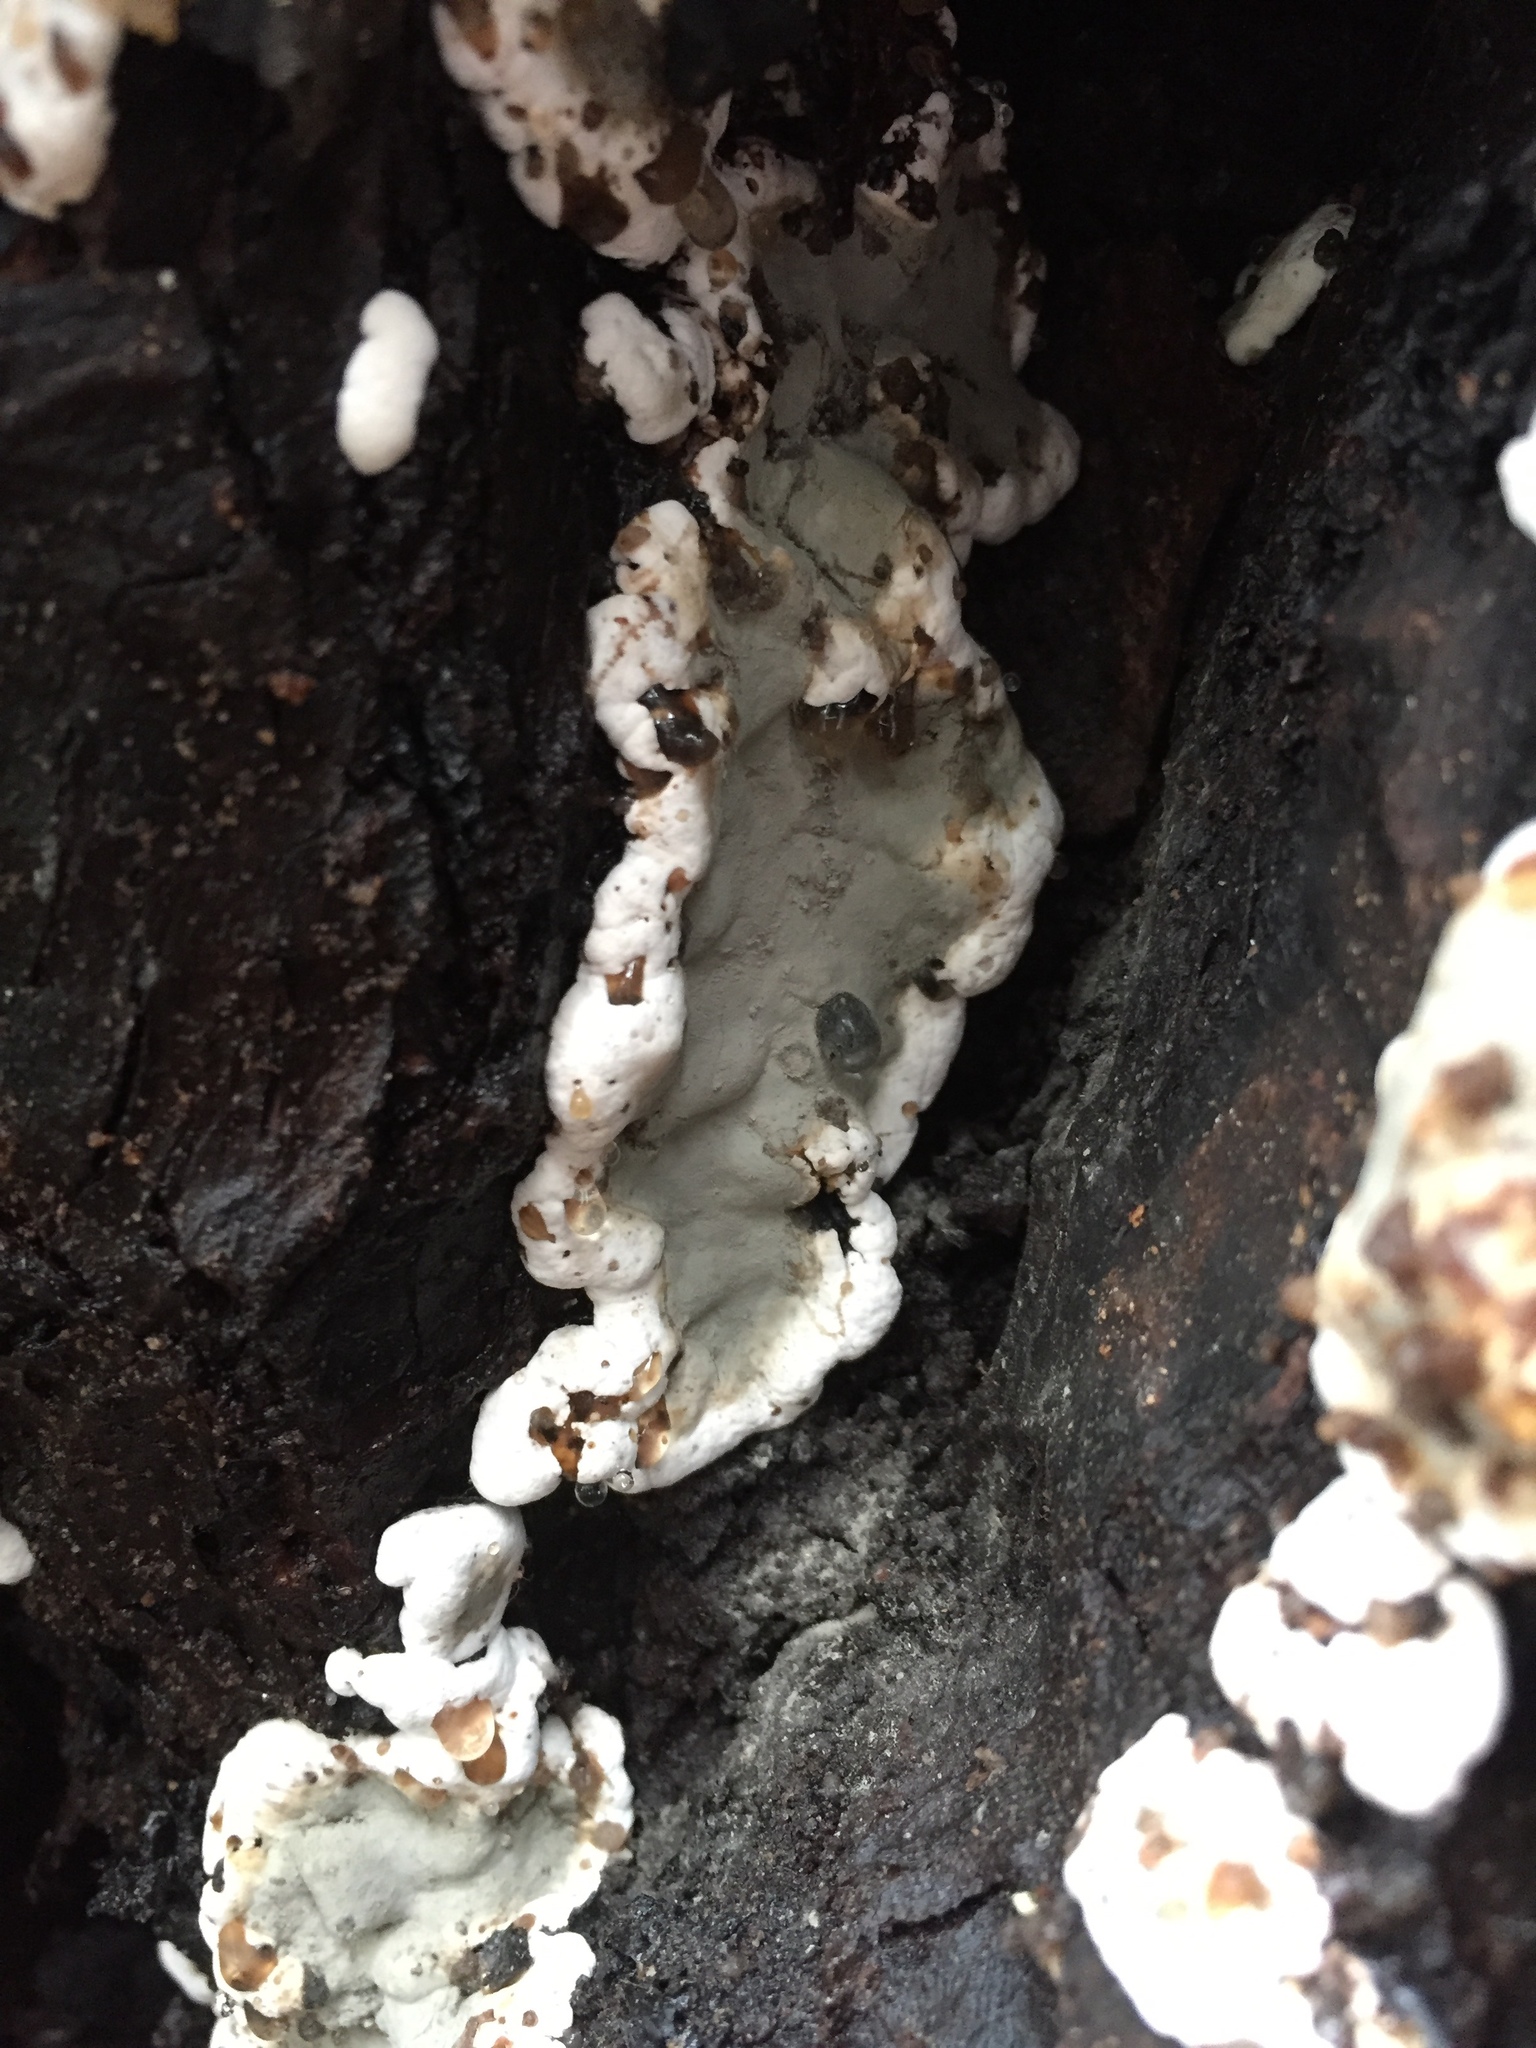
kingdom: Fungi
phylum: Ascomycota
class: Sordariomycetes
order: Xylariales
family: Xylariaceae
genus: Kretzschmaria
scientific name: Kretzschmaria deusta
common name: Brittle cinder
